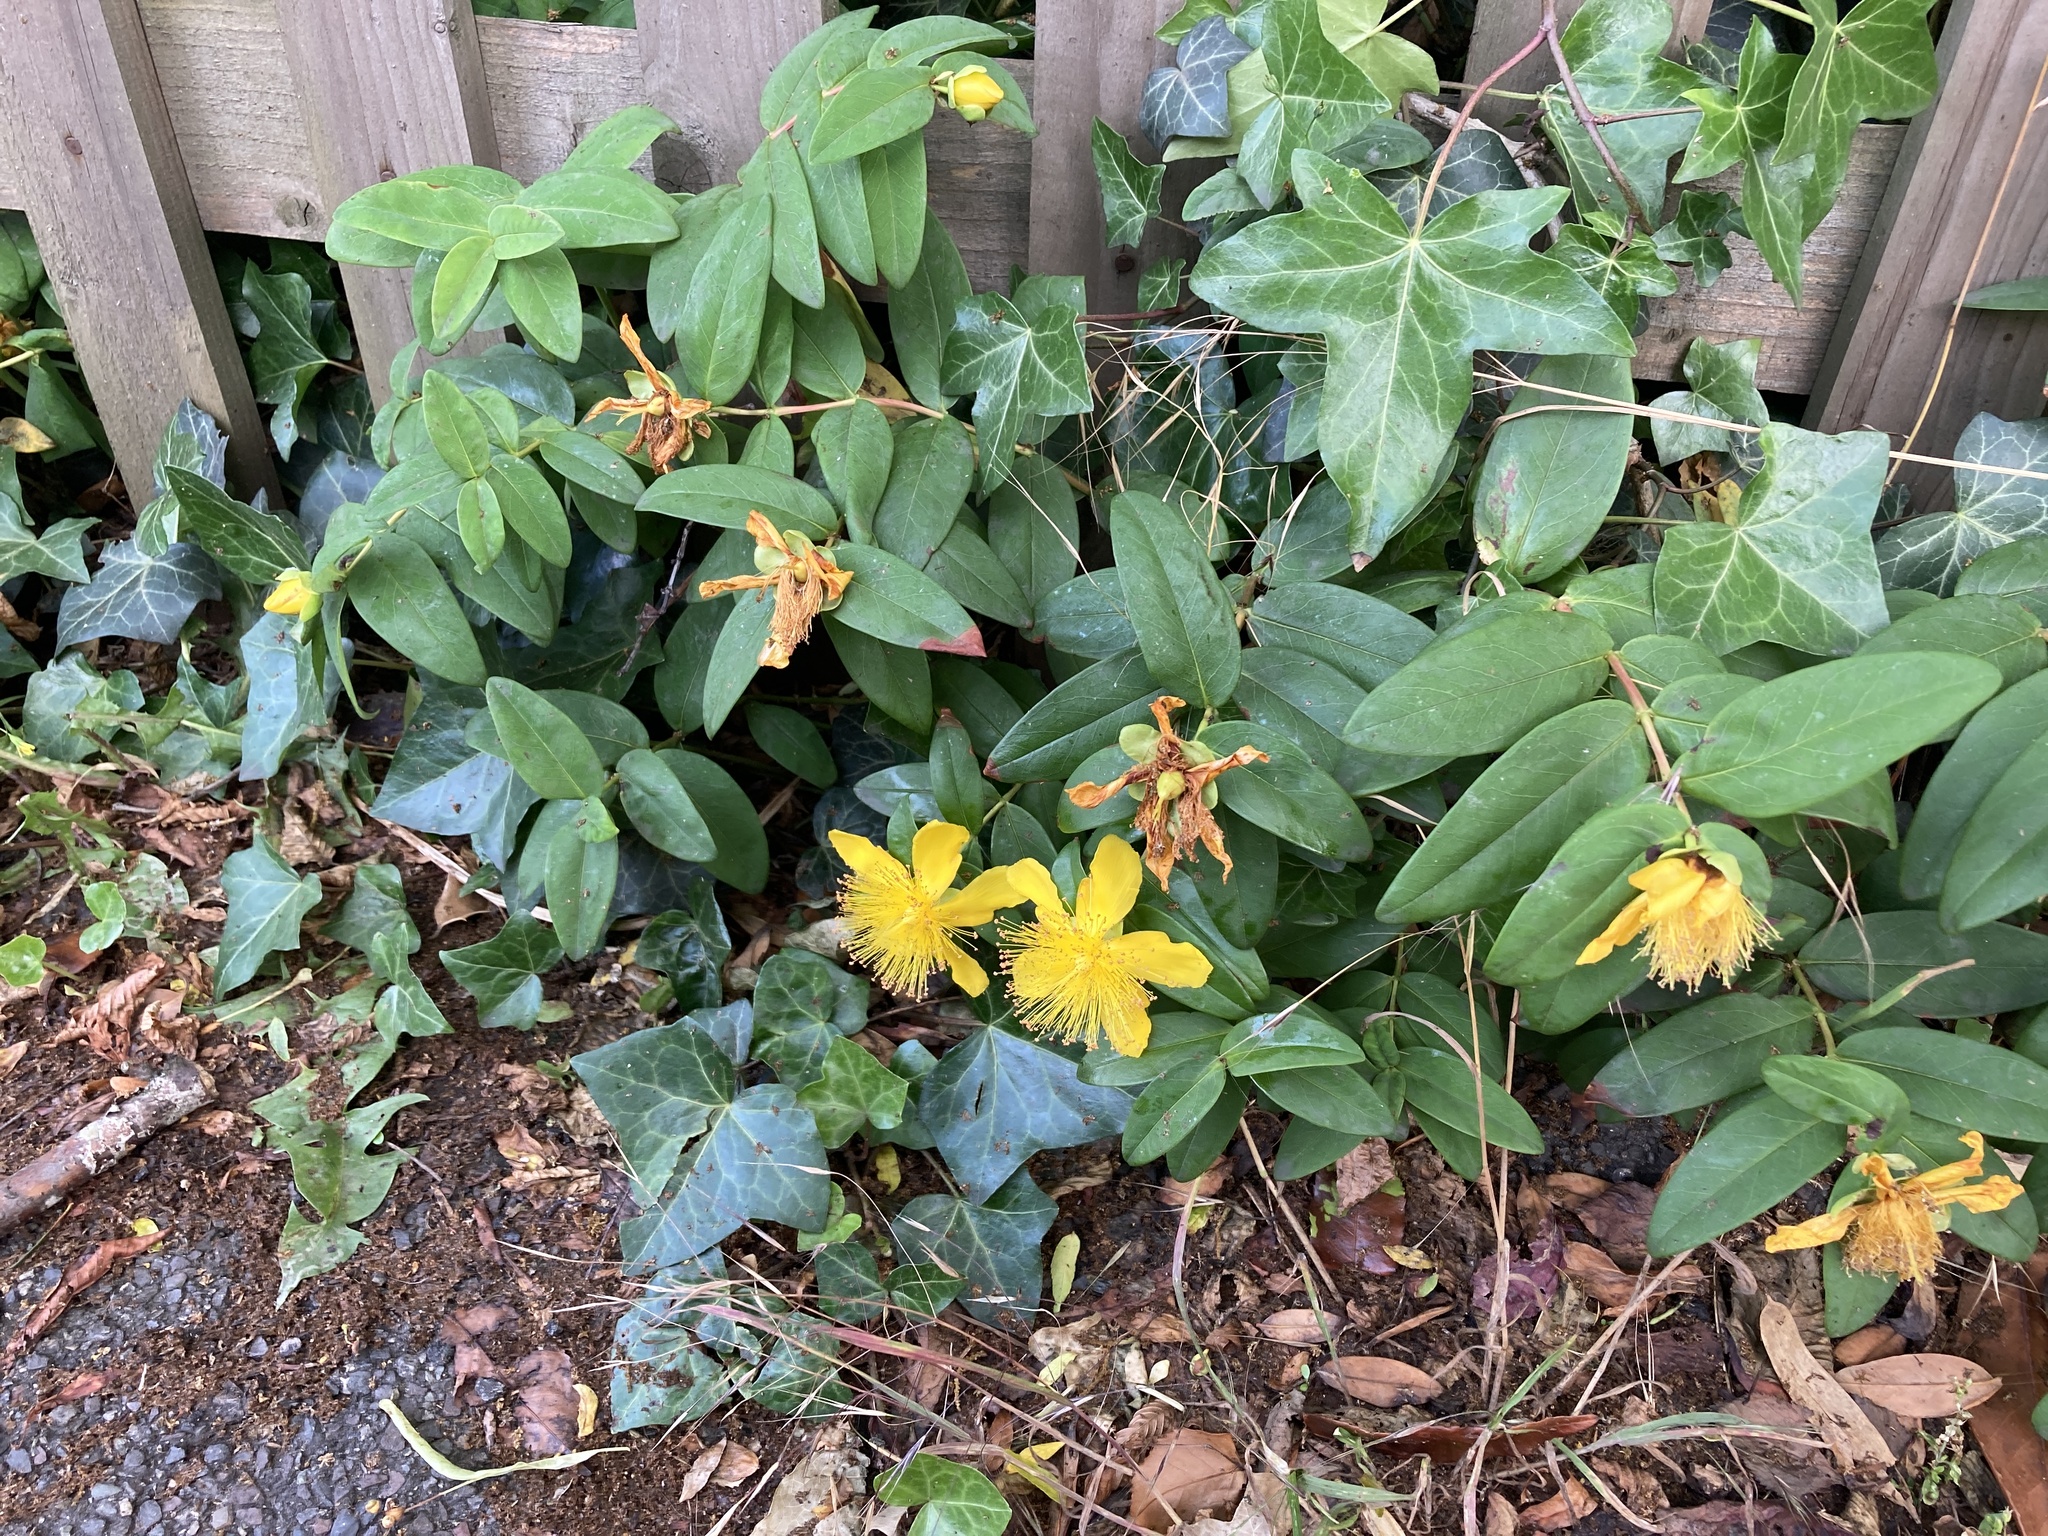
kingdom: Plantae
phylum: Tracheophyta
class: Magnoliopsida
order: Malpighiales
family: Hypericaceae
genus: Hypericum
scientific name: Hypericum calycinum
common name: Rose-of-sharon
